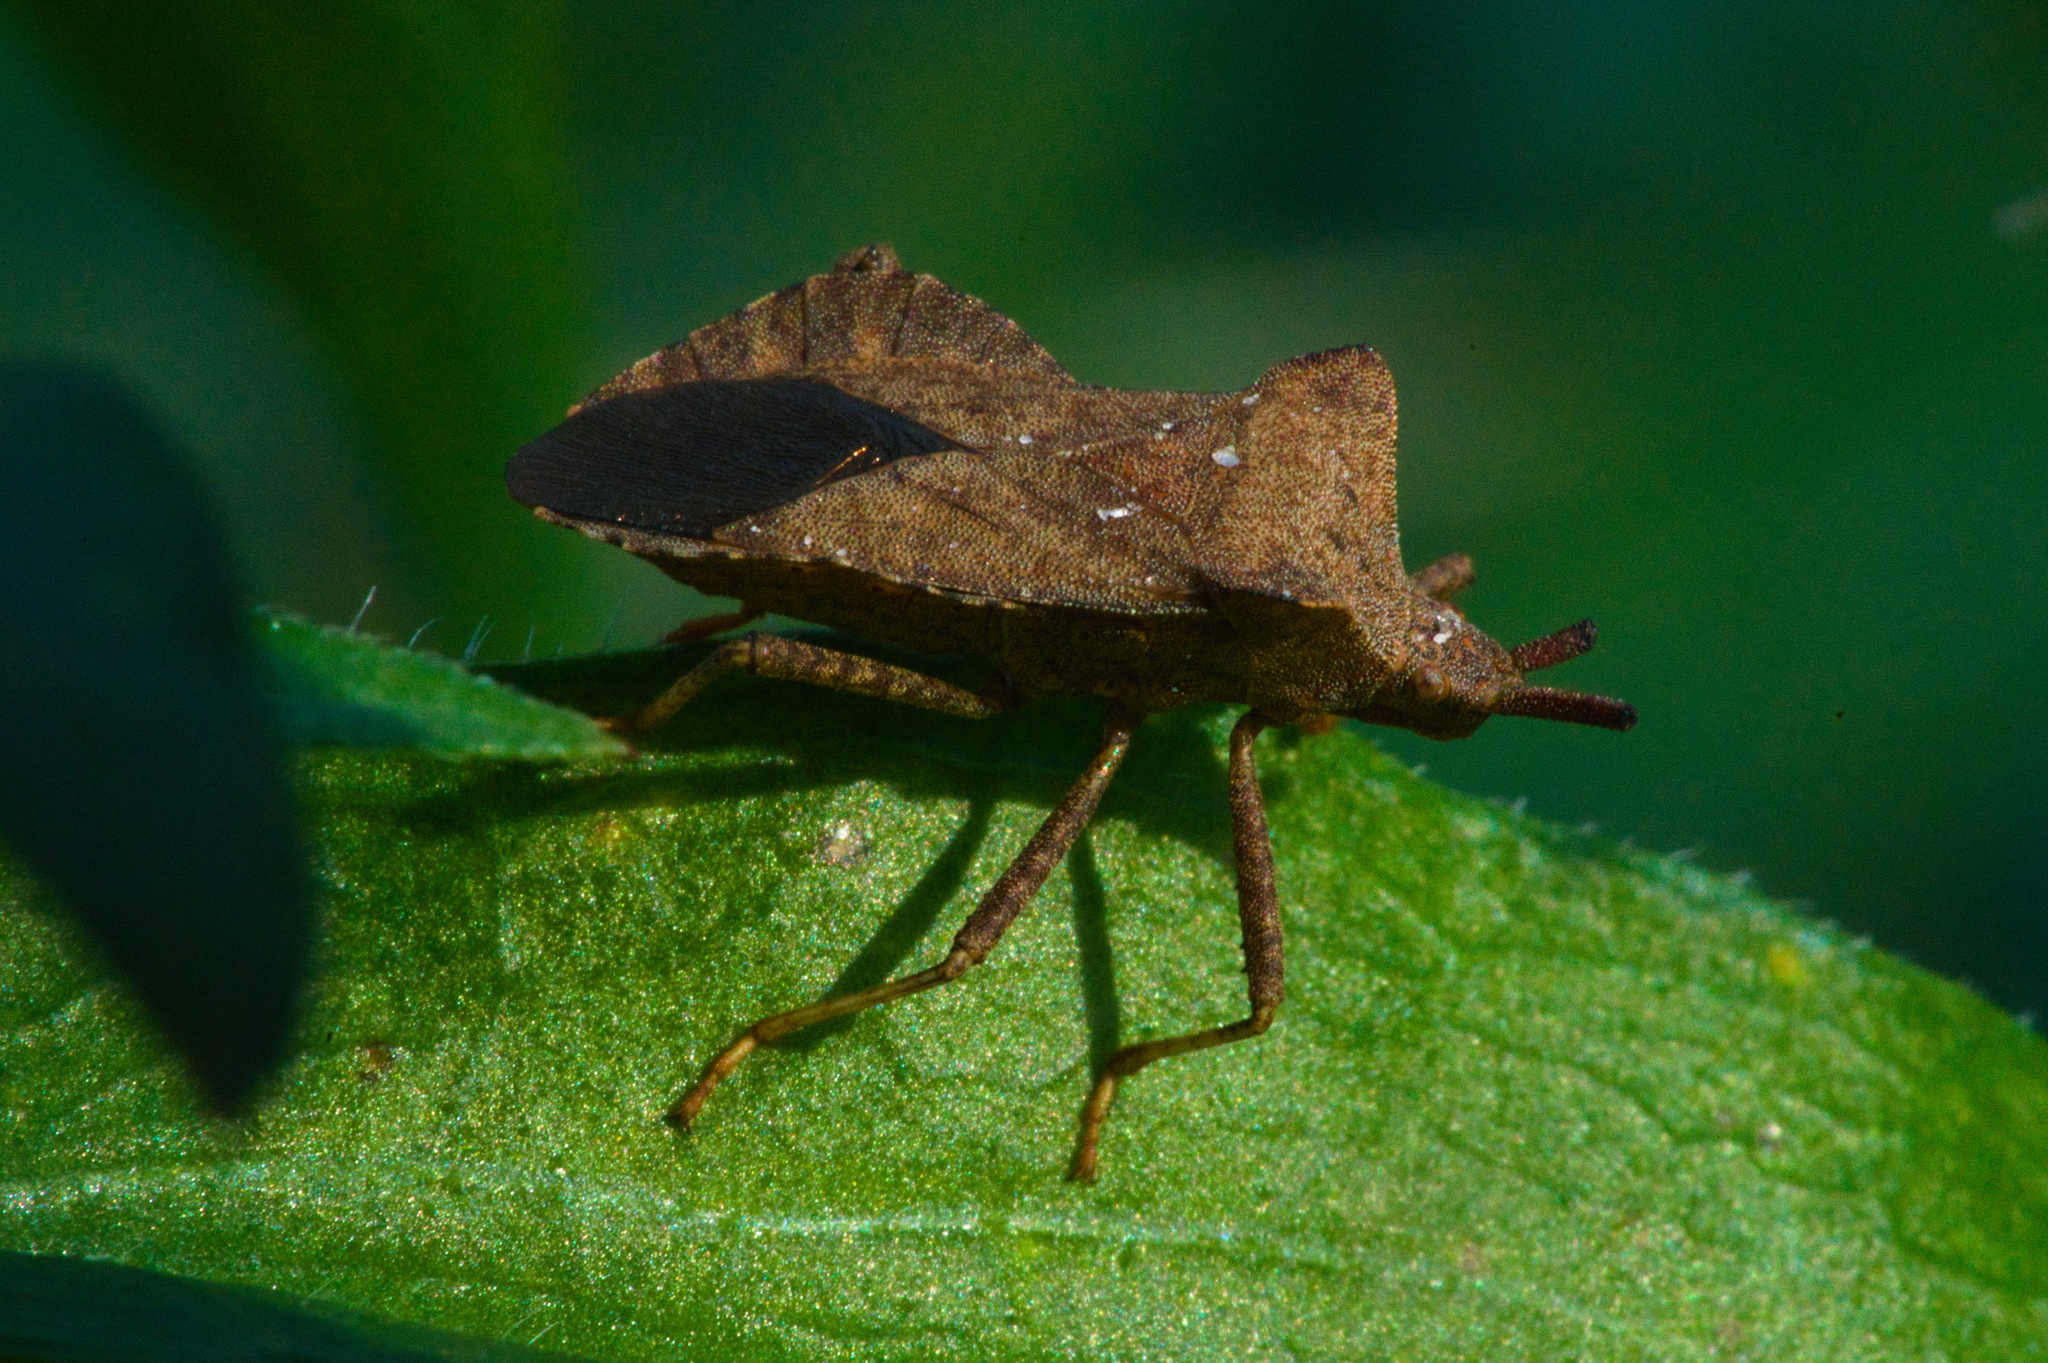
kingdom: Animalia
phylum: Arthropoda
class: Insecta
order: Hemiptera
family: Coreidae
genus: Coreus
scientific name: Coreus marginatus
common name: Dock bug
